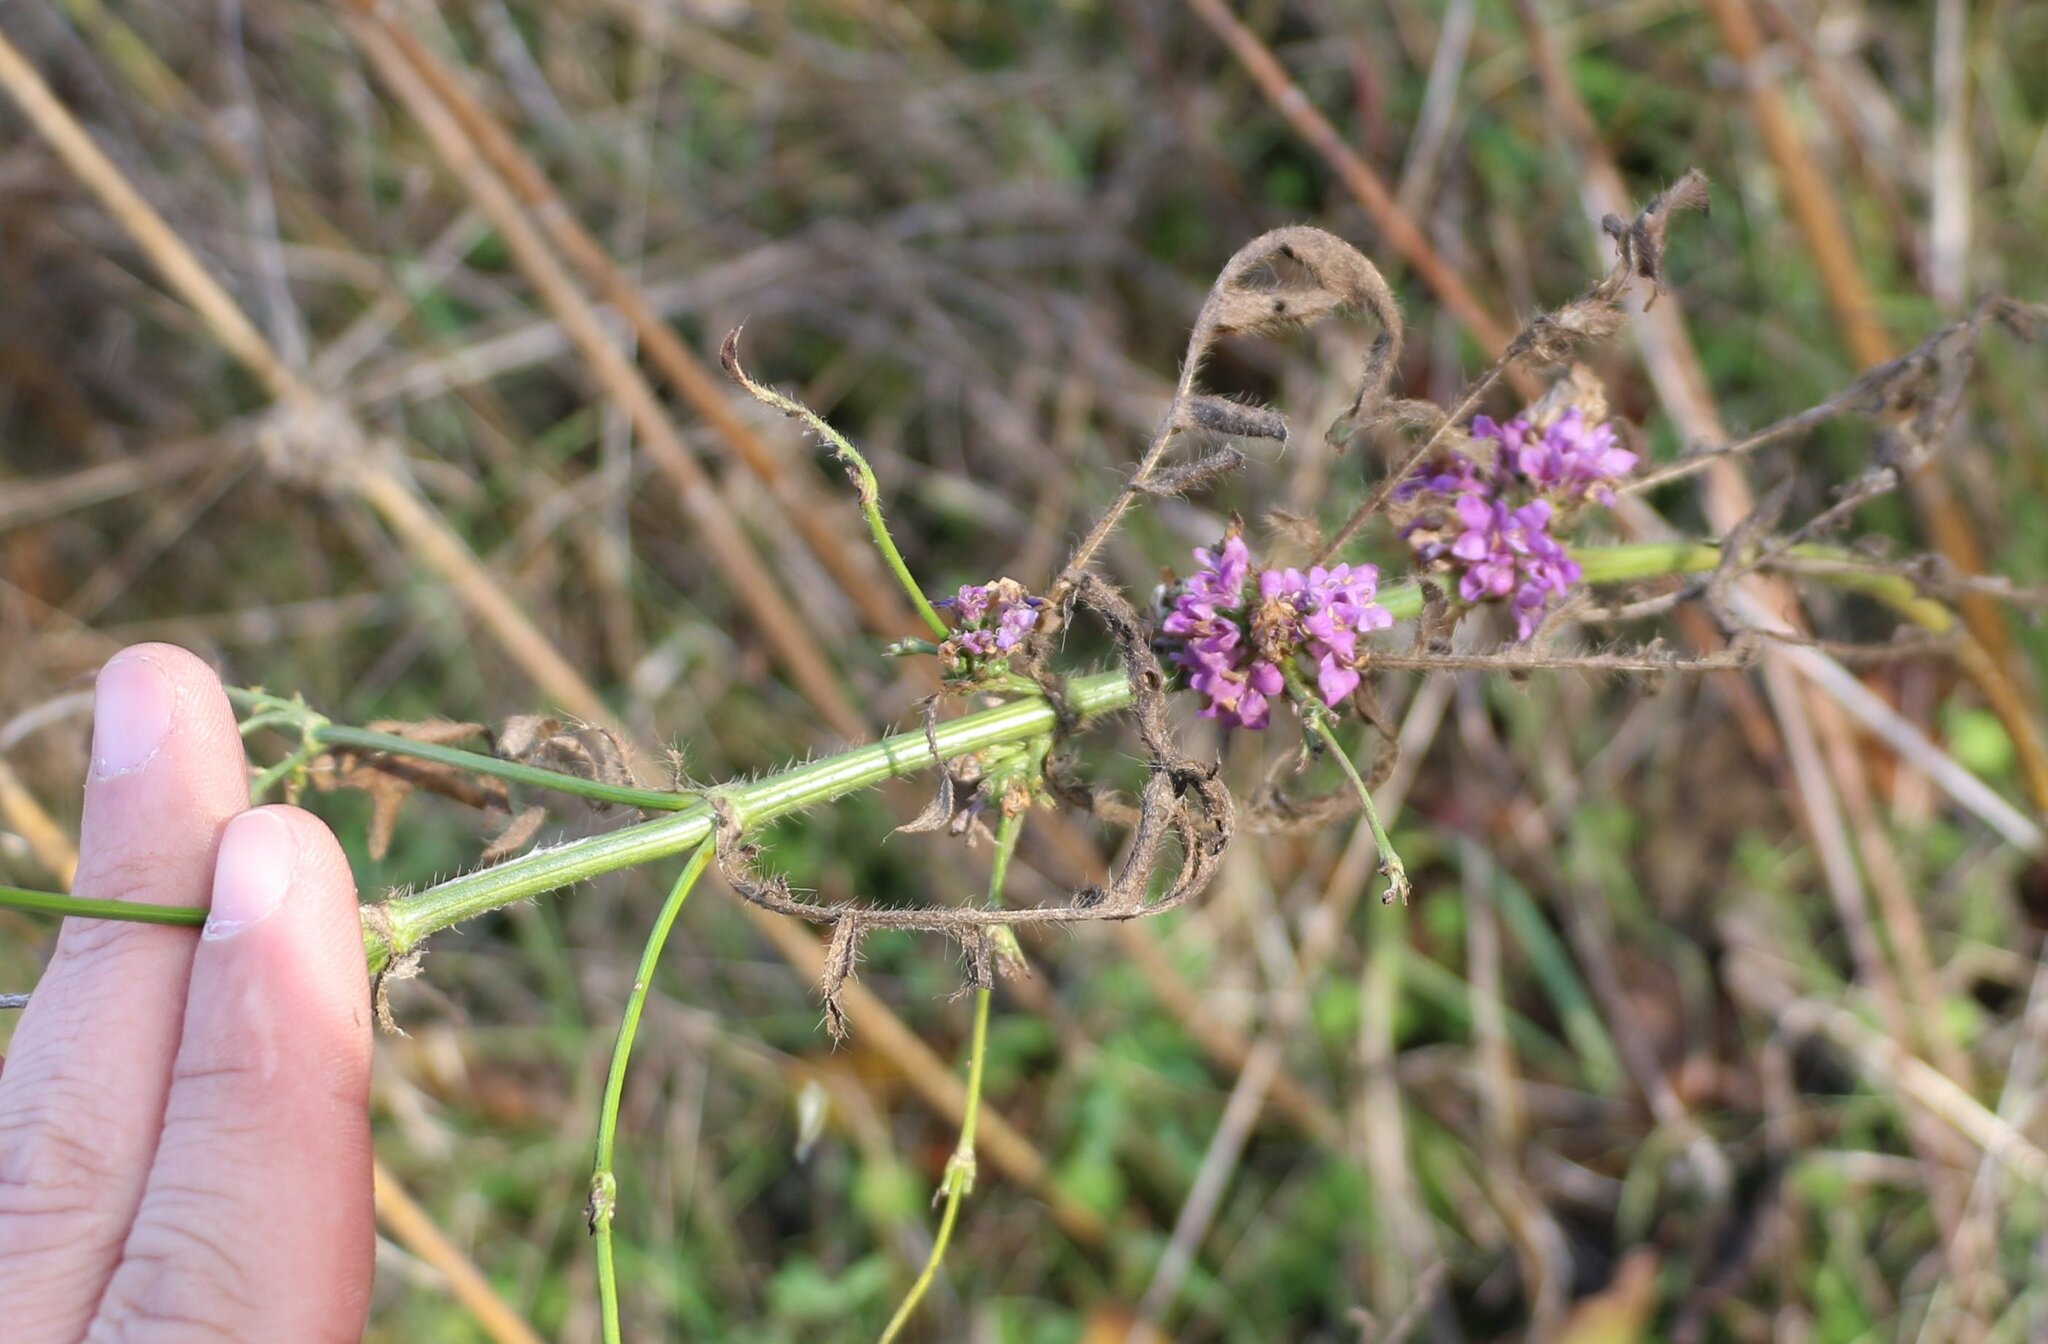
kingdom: Plantae
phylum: Tracheophyta
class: Magnoliopsida
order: Dipsacales
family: Caprifoliaceae
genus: Cephalaria
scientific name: Cephalaria transsylvanica
